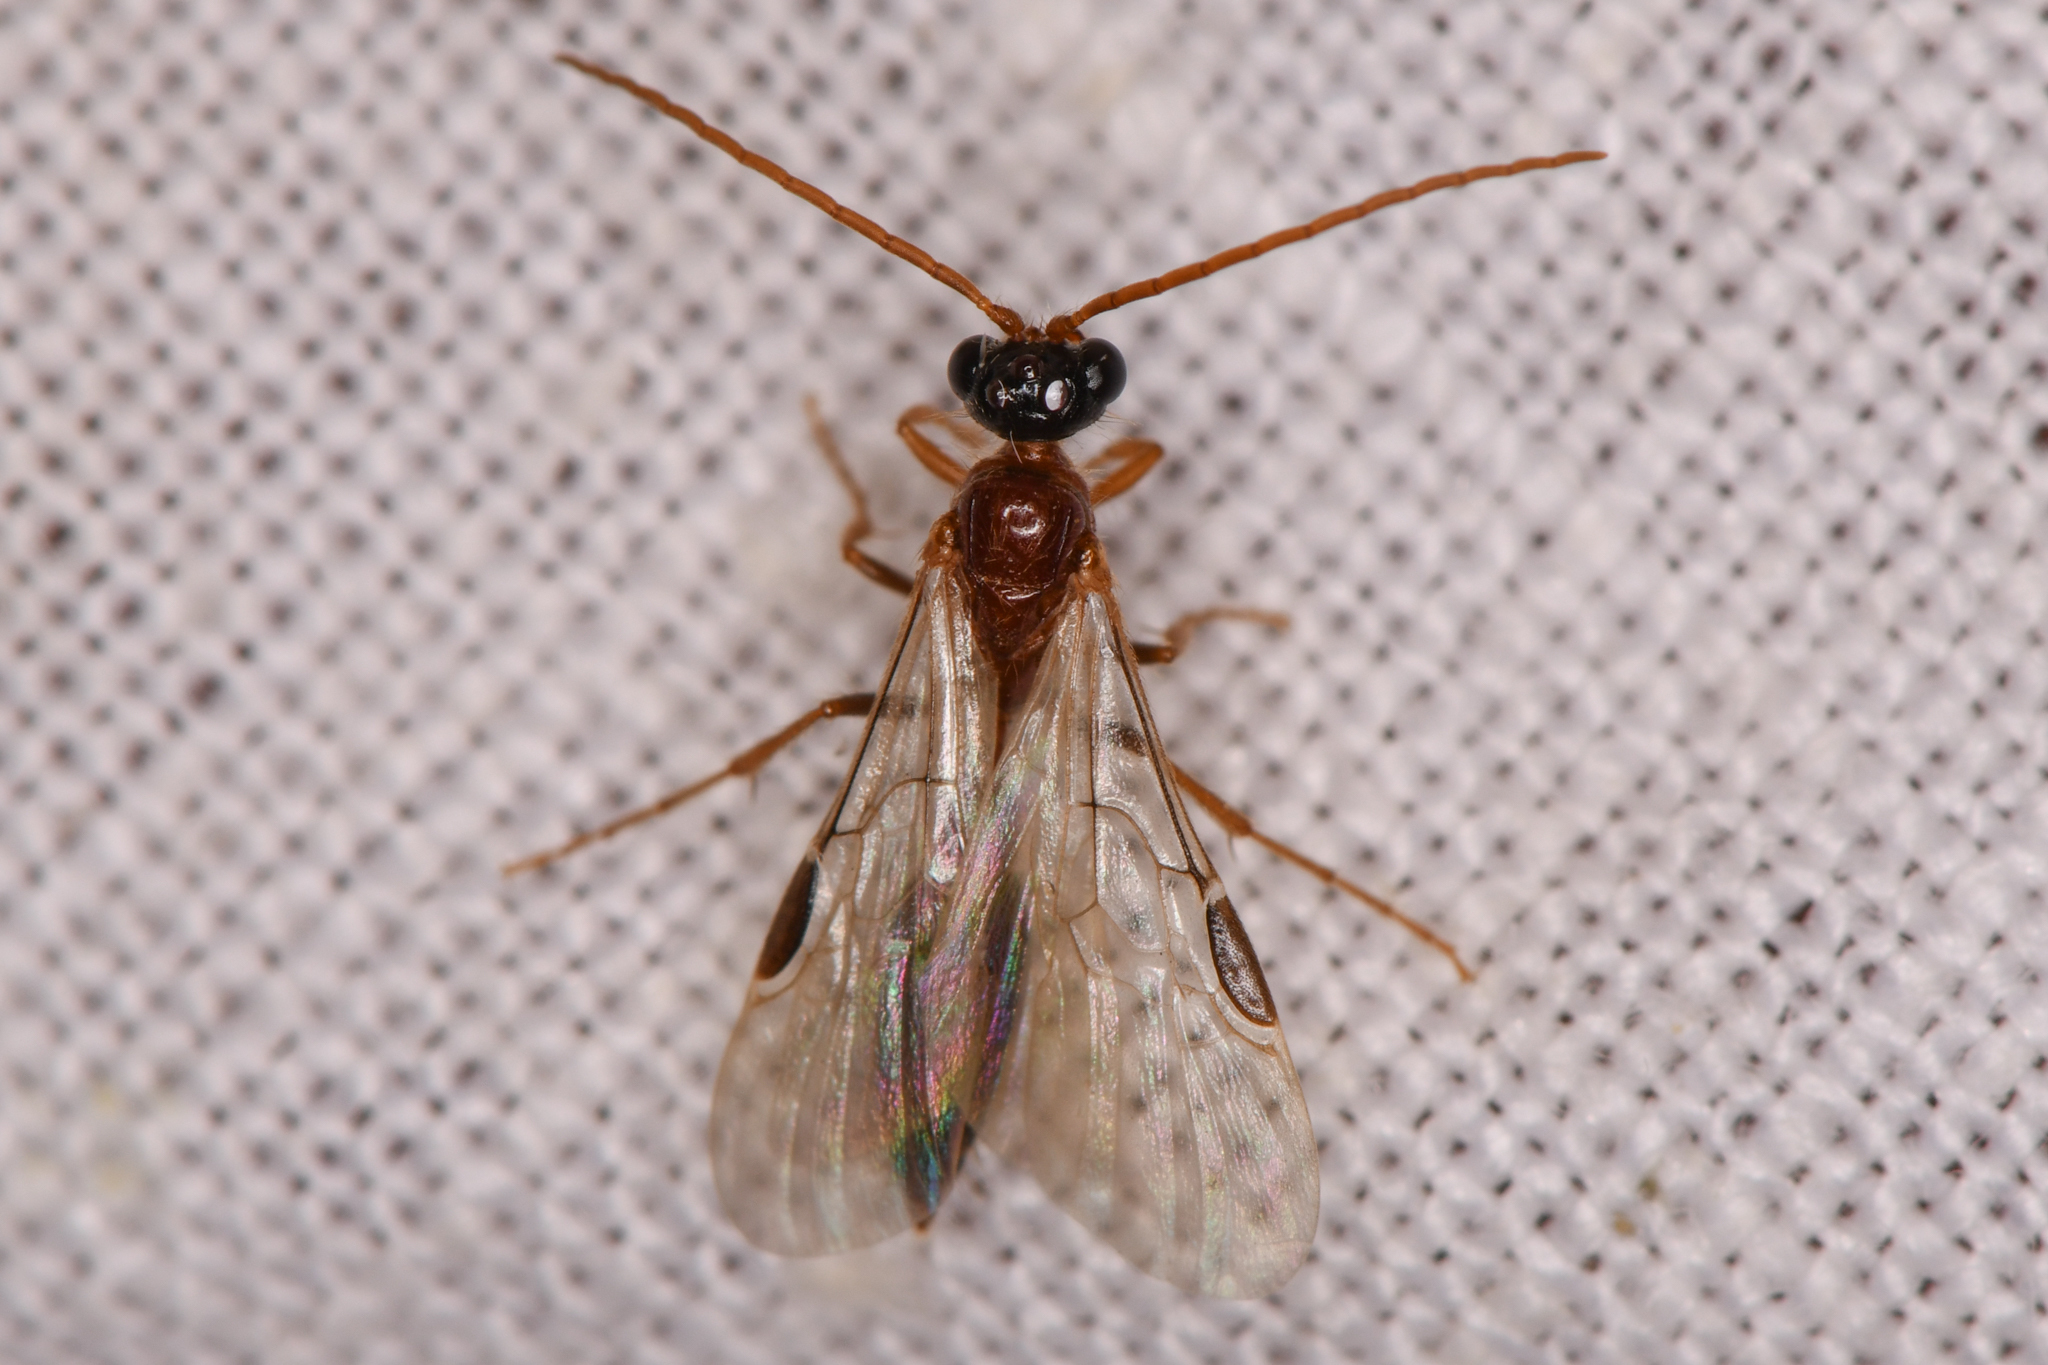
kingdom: Animalia
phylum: Arthropoda
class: Insecta
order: Hymenoptera
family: Tiphiidae
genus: Brachycistis
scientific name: Brachycistis
